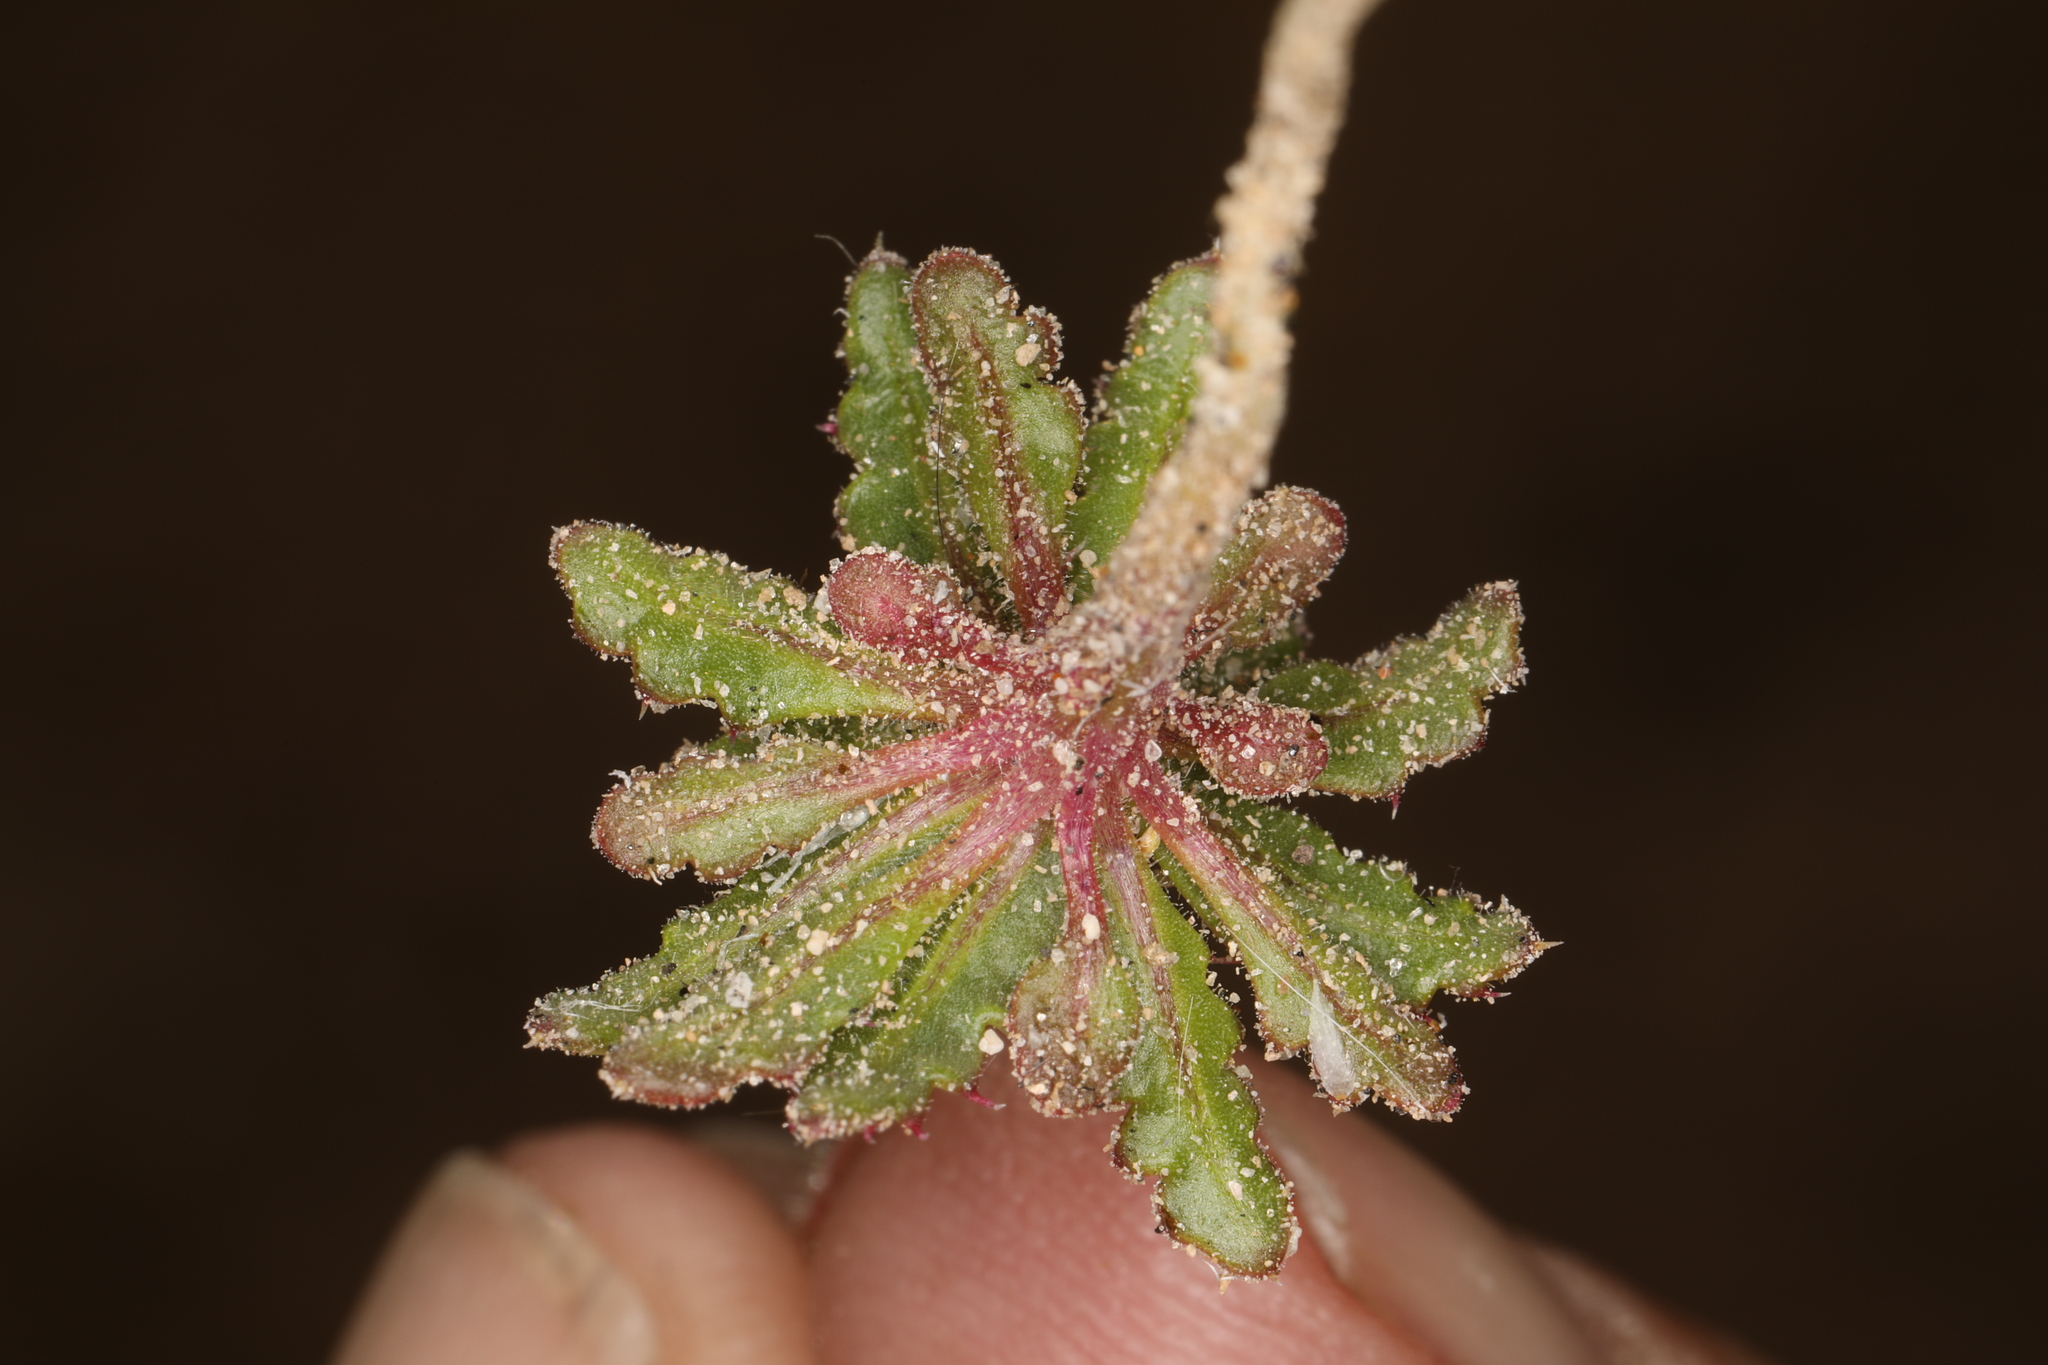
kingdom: Plantae
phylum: Tracheophyta
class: Magnoliopsida
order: Ericales
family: Polemoniaceae
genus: Aliciella
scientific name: Aliciella lottiae
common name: Lott's gilia
